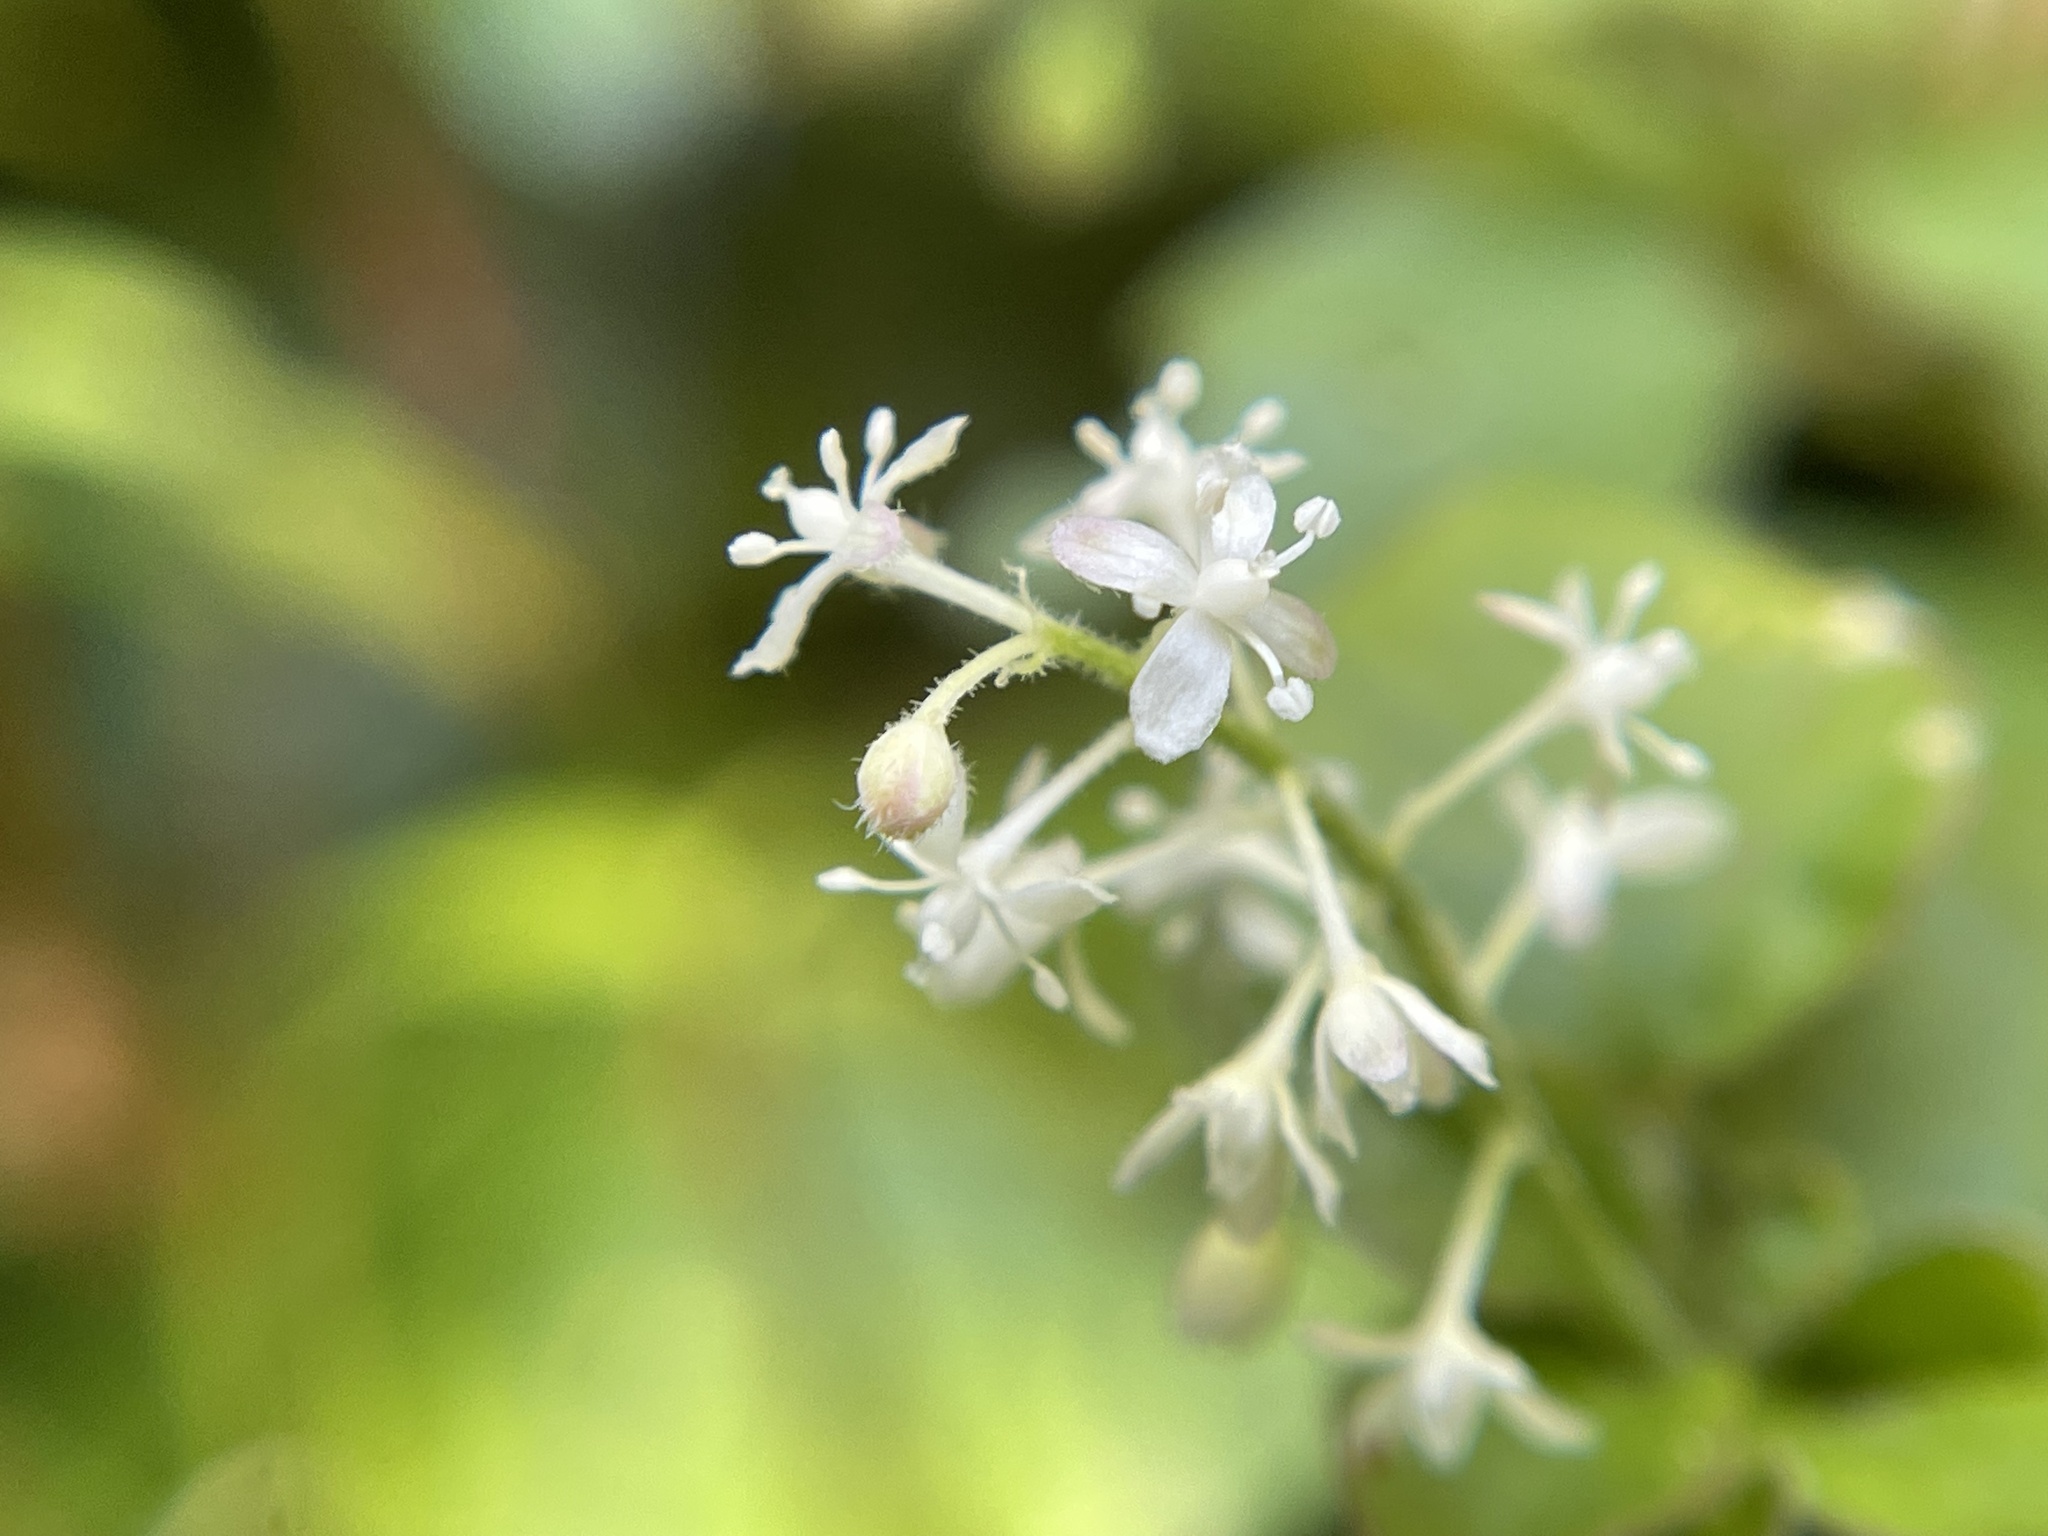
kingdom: Plantae
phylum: Tracheophyta
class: Magnoliopsida
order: Caryophyllales
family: Phytolaccaceae
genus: Rivina
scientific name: Rivina humilis
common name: Rougeplant
